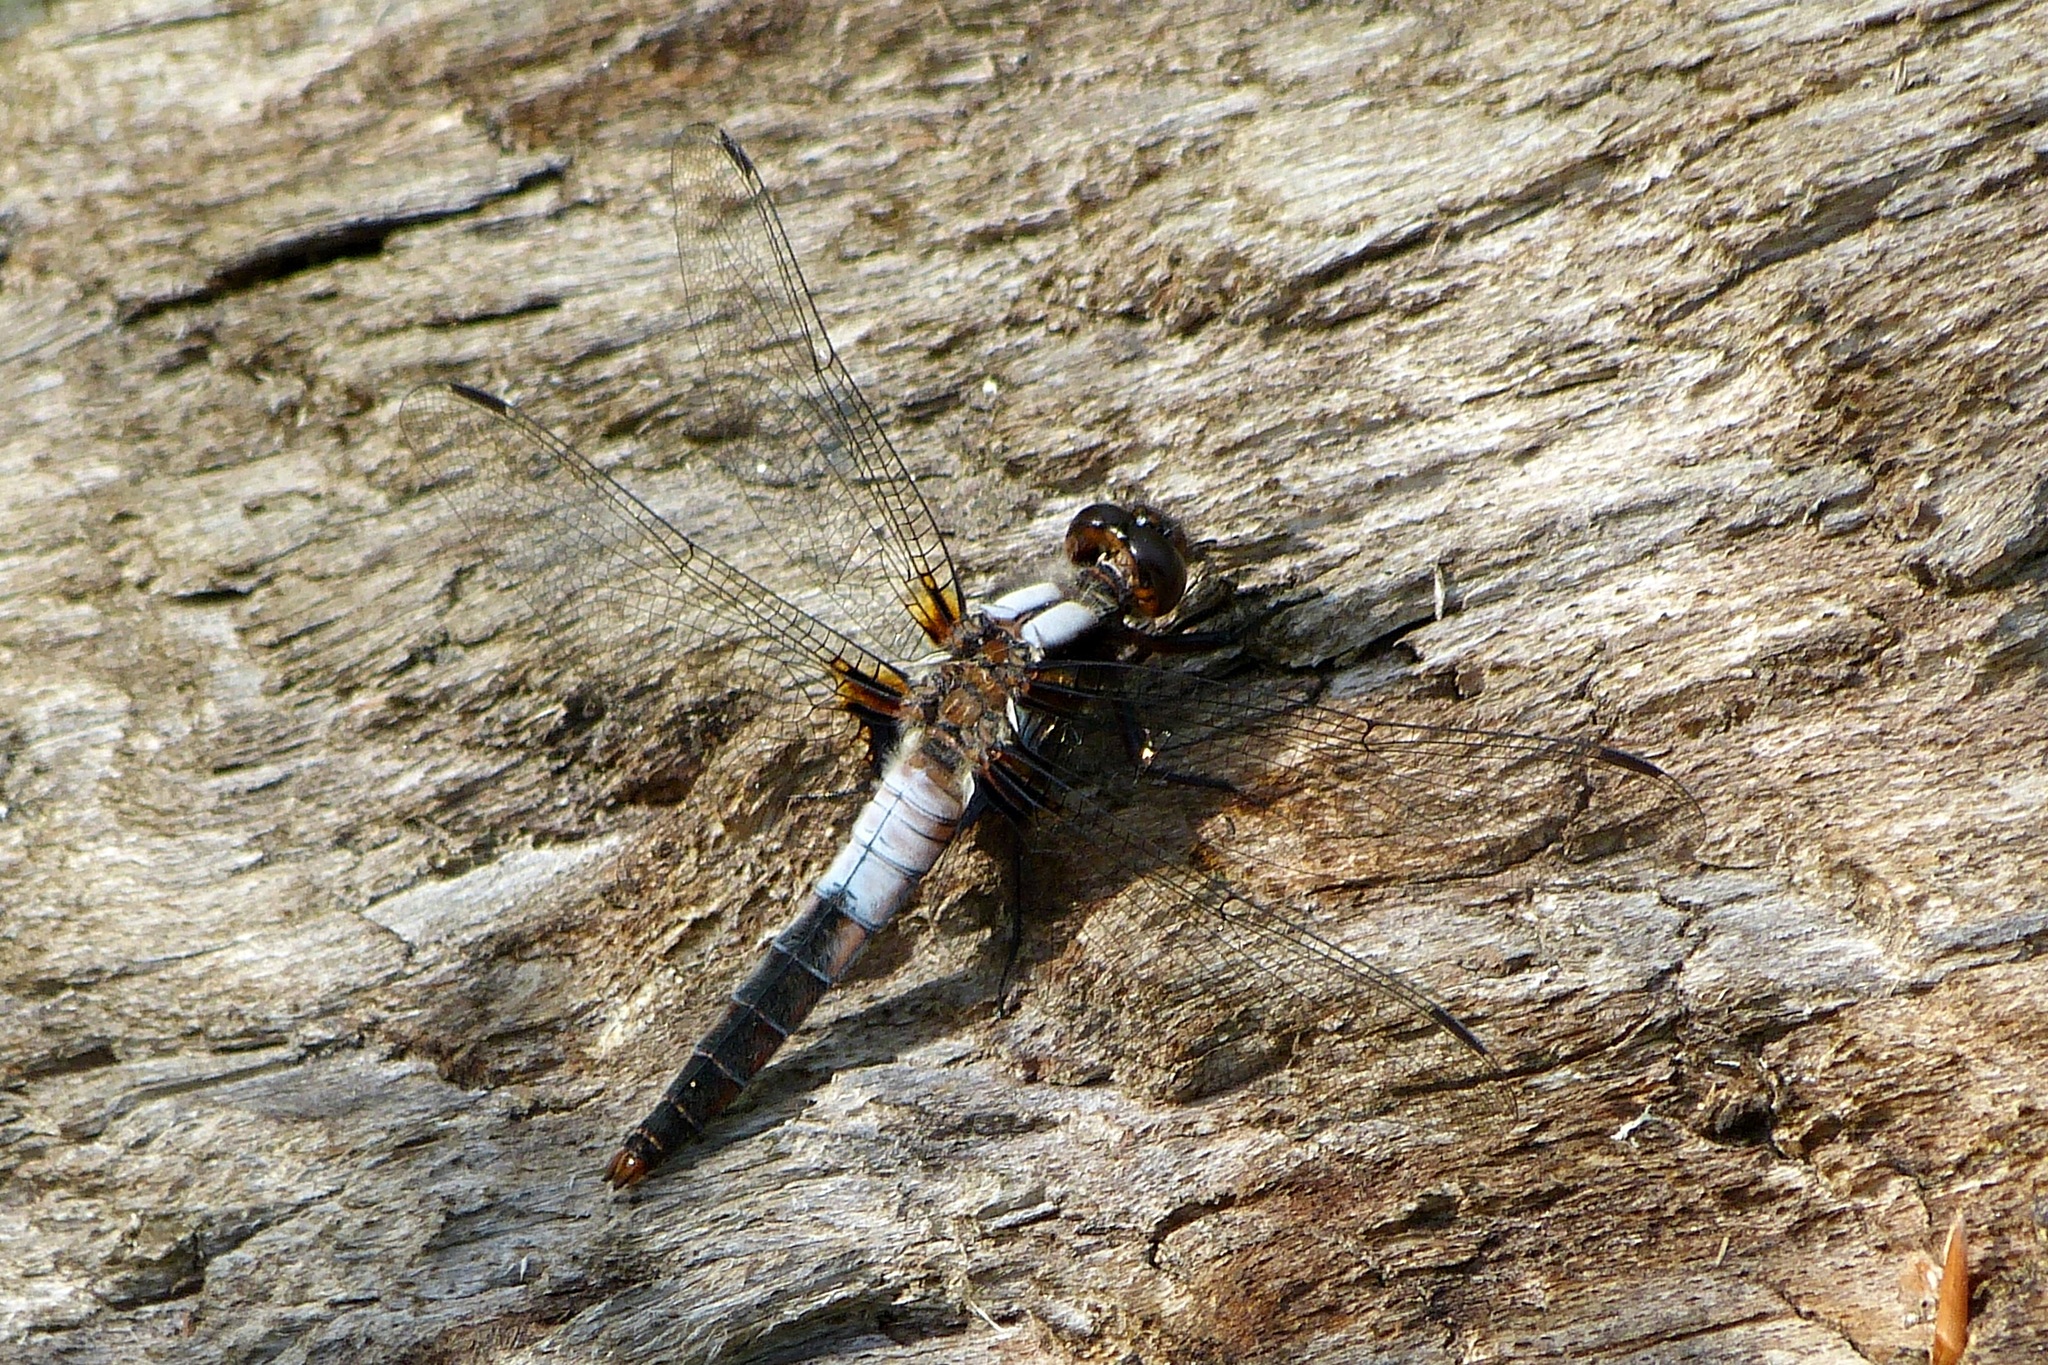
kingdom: Animalia
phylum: Arthropoda
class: Insecta
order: Odonata
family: Libellulidae
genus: Ladona
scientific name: Ladona julia
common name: Chalk-fronted corporal
